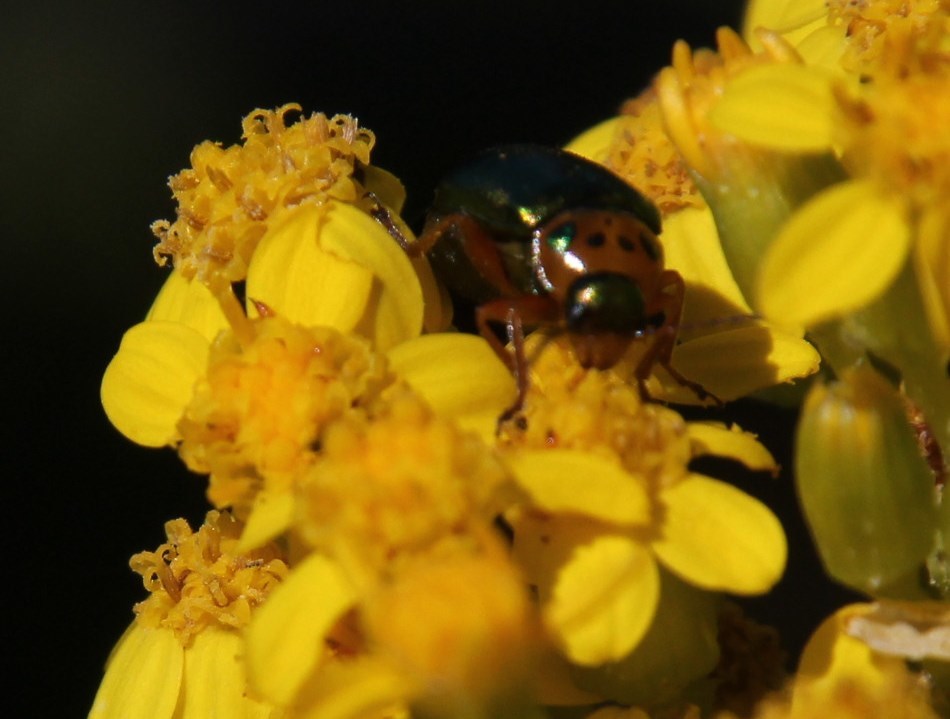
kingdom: Plantae
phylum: Tracheophyta
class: Magnoliopsida
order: Asterales
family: Asteraceae
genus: Senecio
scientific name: Senecio rigidus
